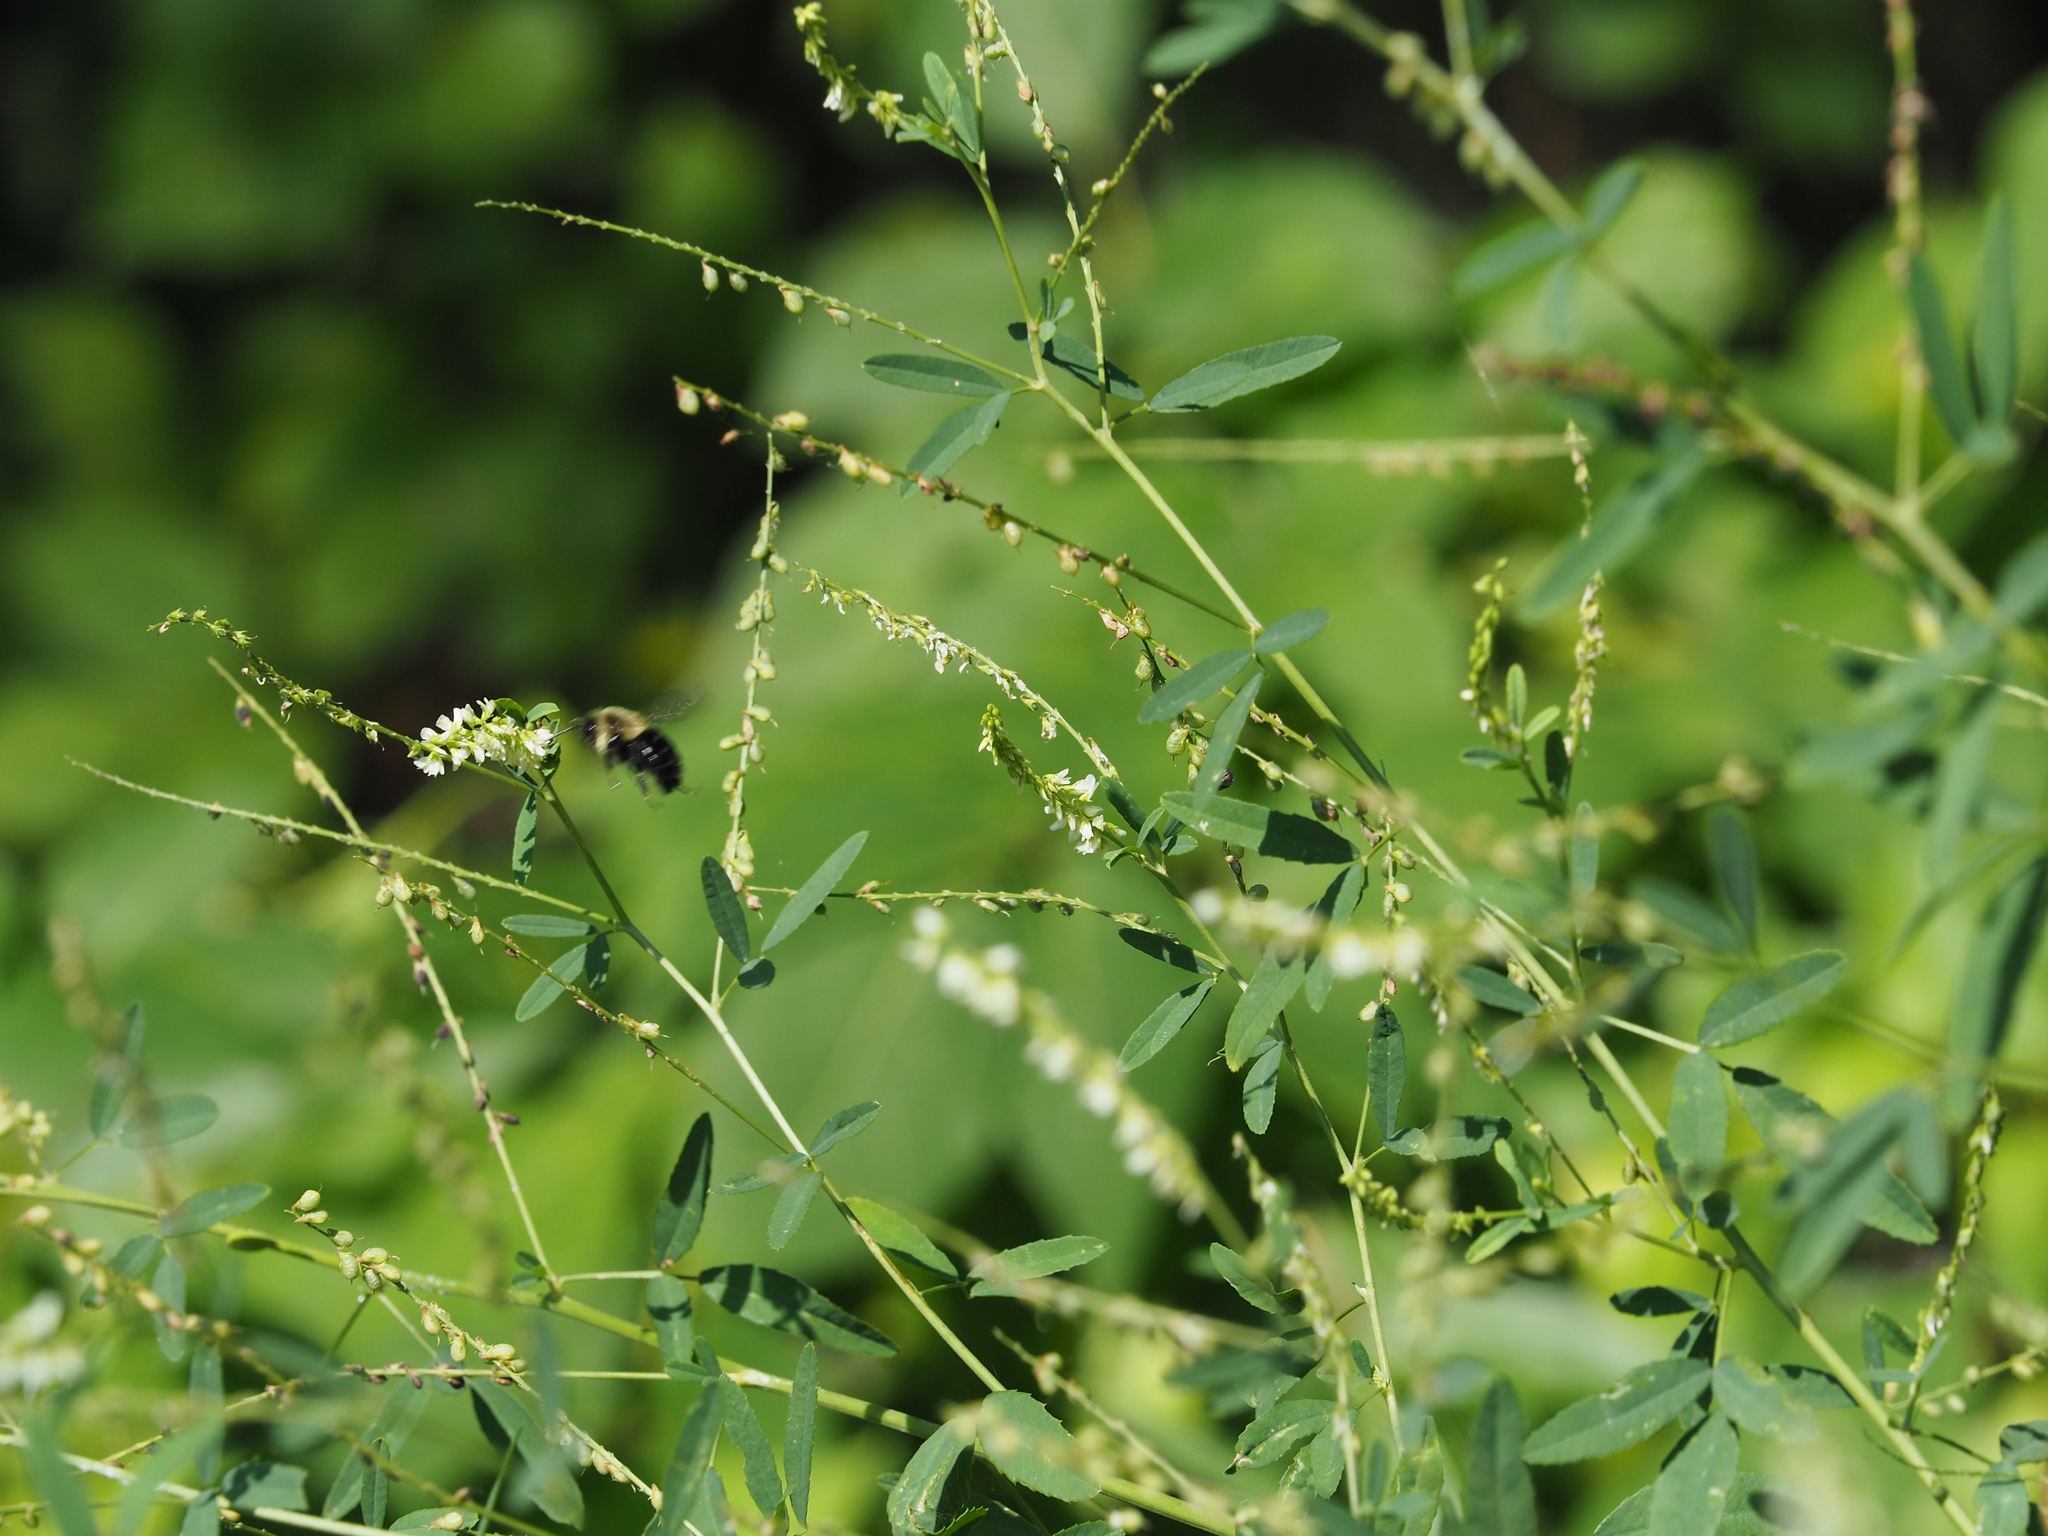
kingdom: Plantae
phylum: Tracheophyta
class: Magnoliopsida
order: Fabales
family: Fabaceae
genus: Melilotus
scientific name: Melilotus albus
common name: White melilot
